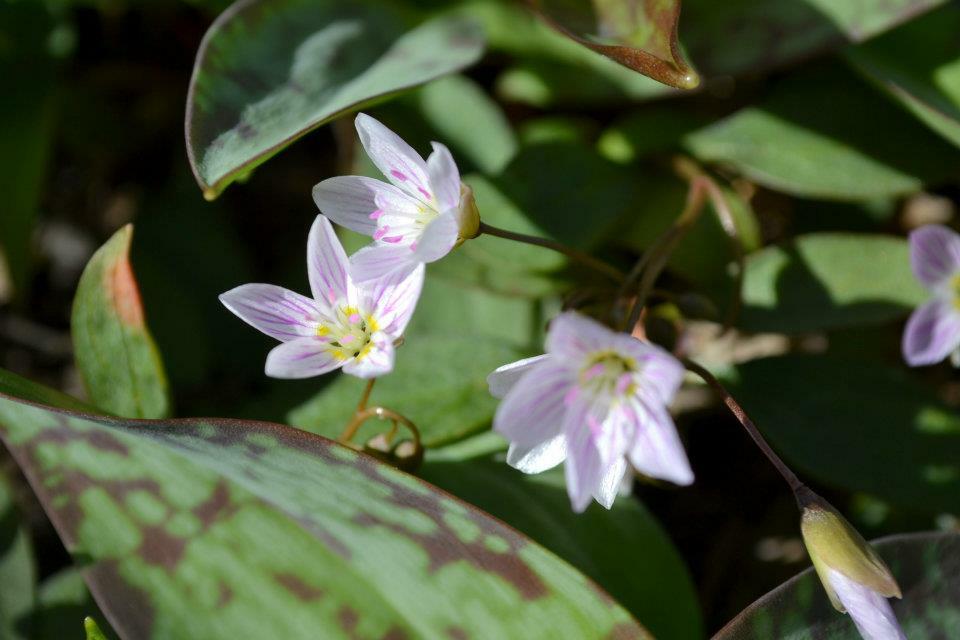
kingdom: Plantae
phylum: Tracheophyta
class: Magnoliopsida
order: Caryophyllales
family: Montiaceae
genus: Claytonia
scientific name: Claytonia caroliniana
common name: Carolina spring beauty
